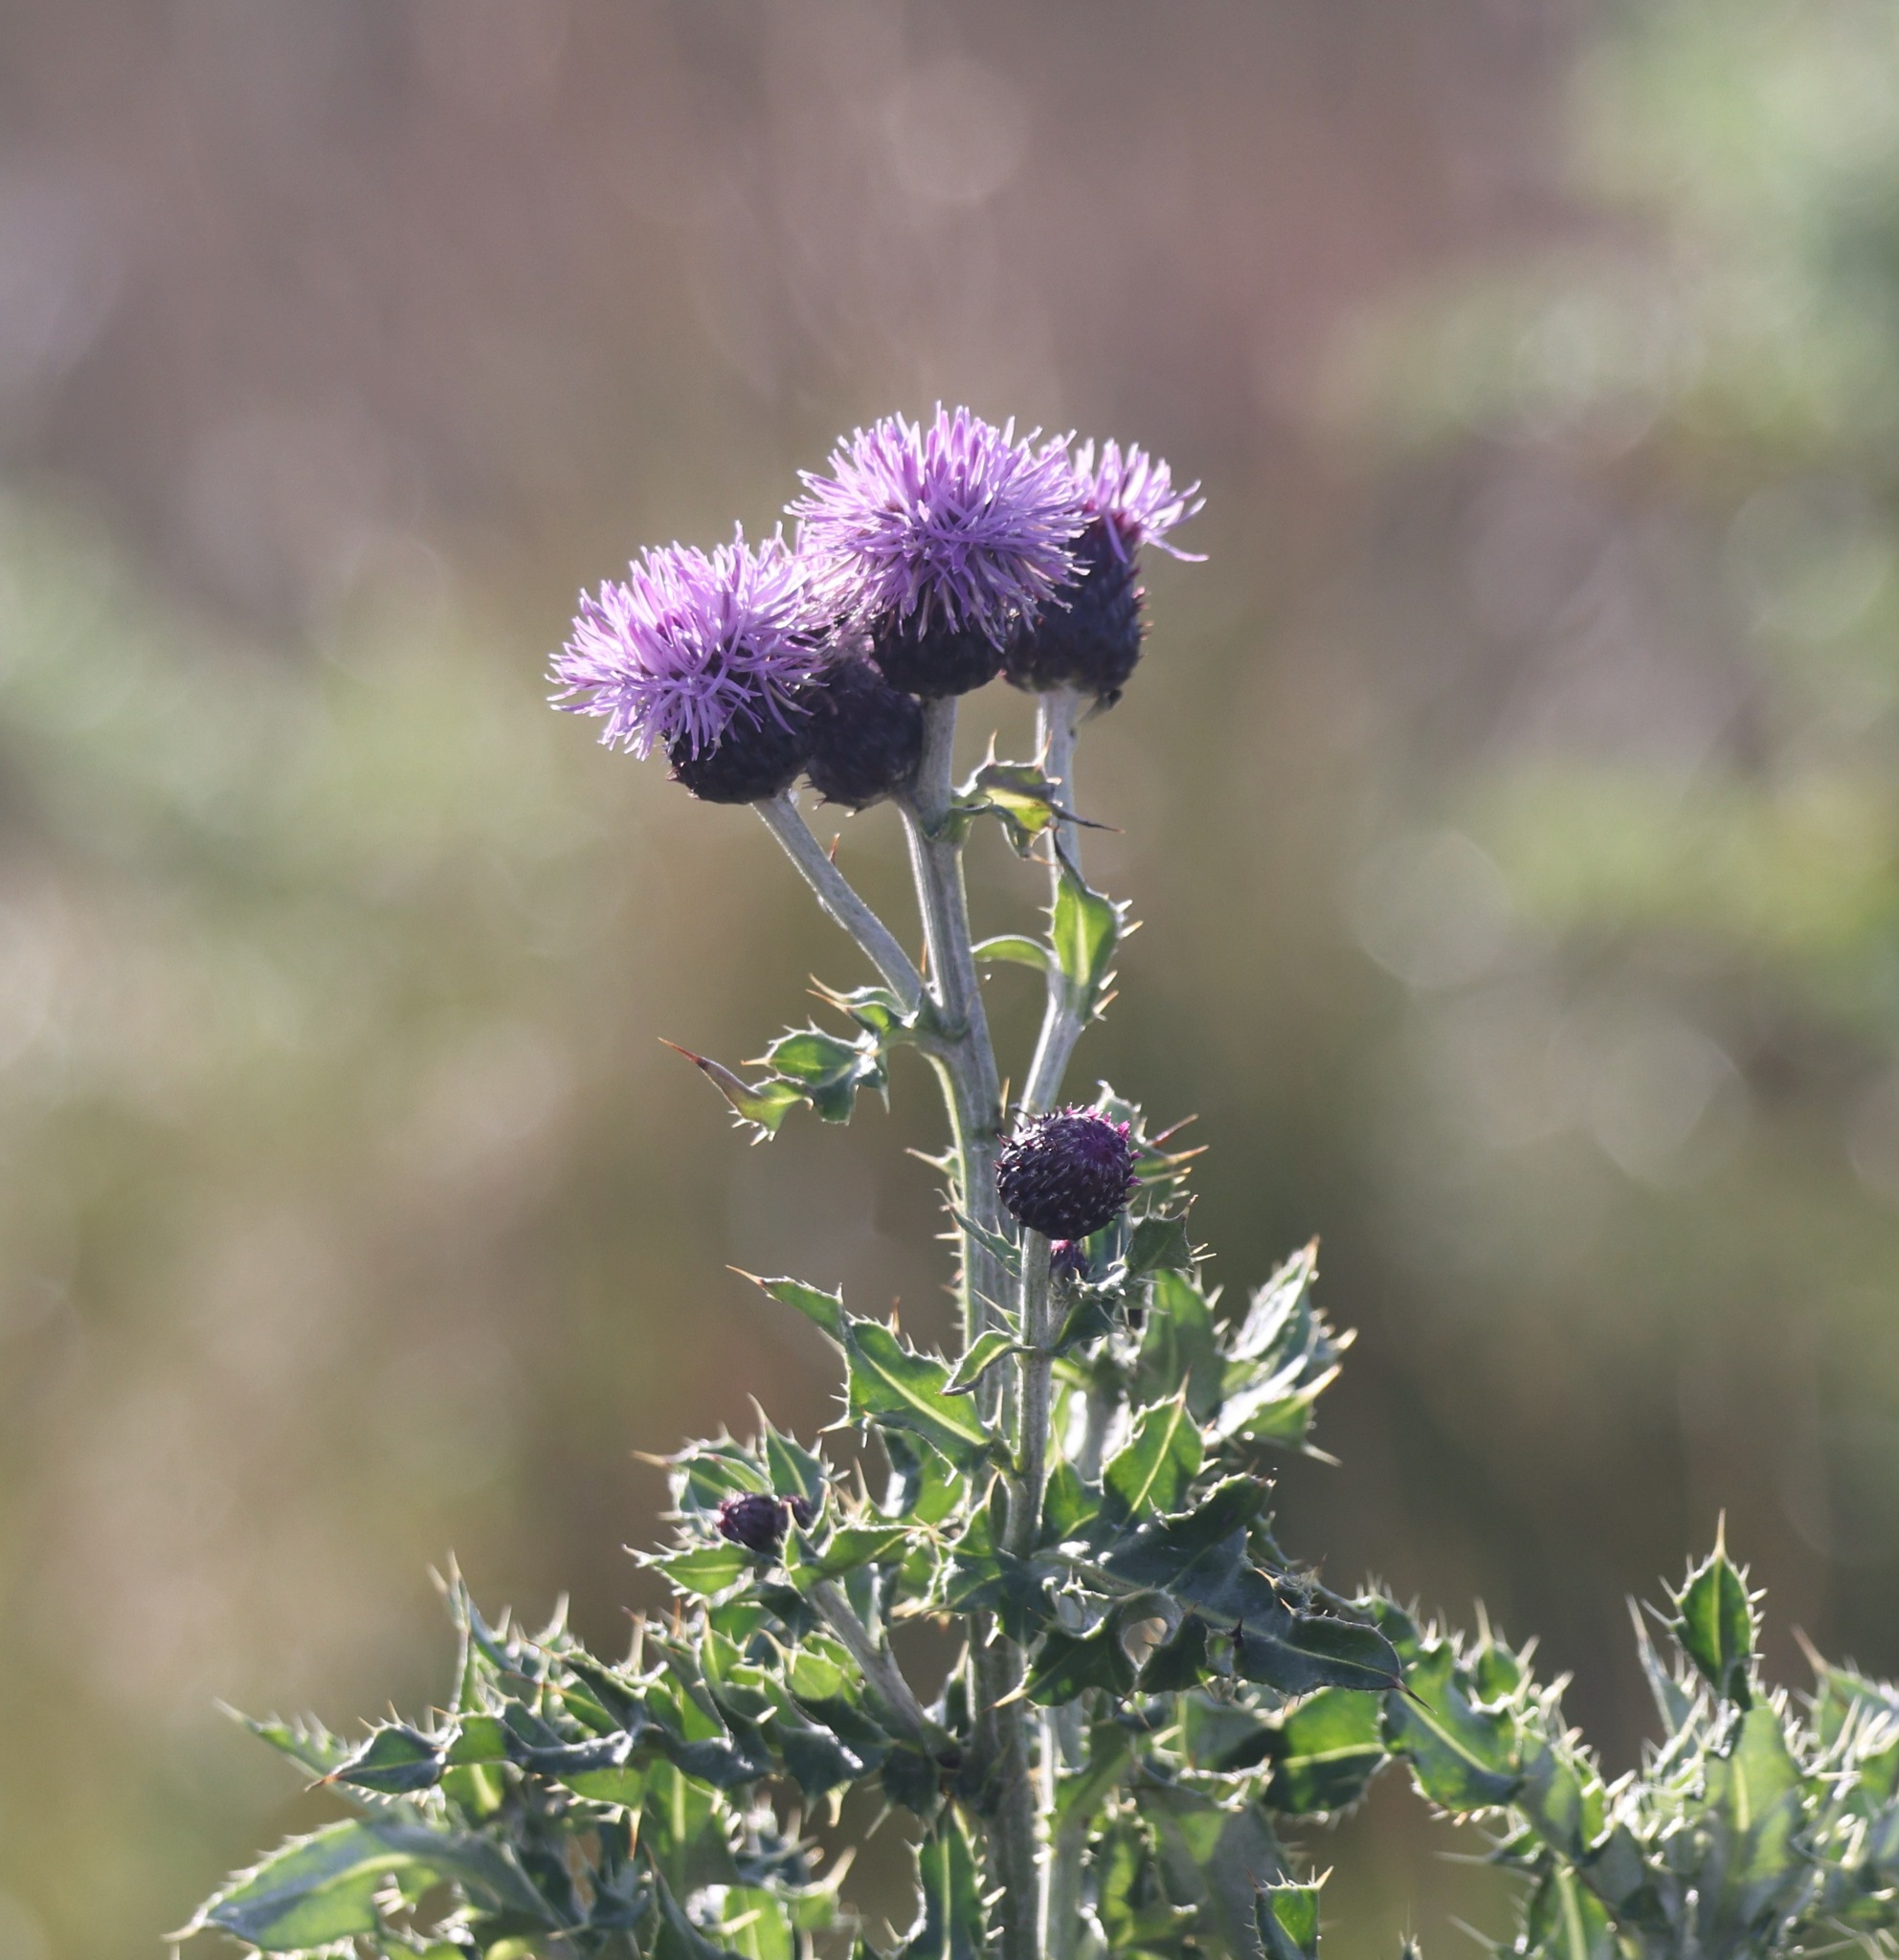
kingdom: Plantae
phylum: Tracheophyta
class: Magnoliopsida
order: Asterales
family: Asteraceae
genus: Cirsium
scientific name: Cirsium arvense
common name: Creeping thistle
